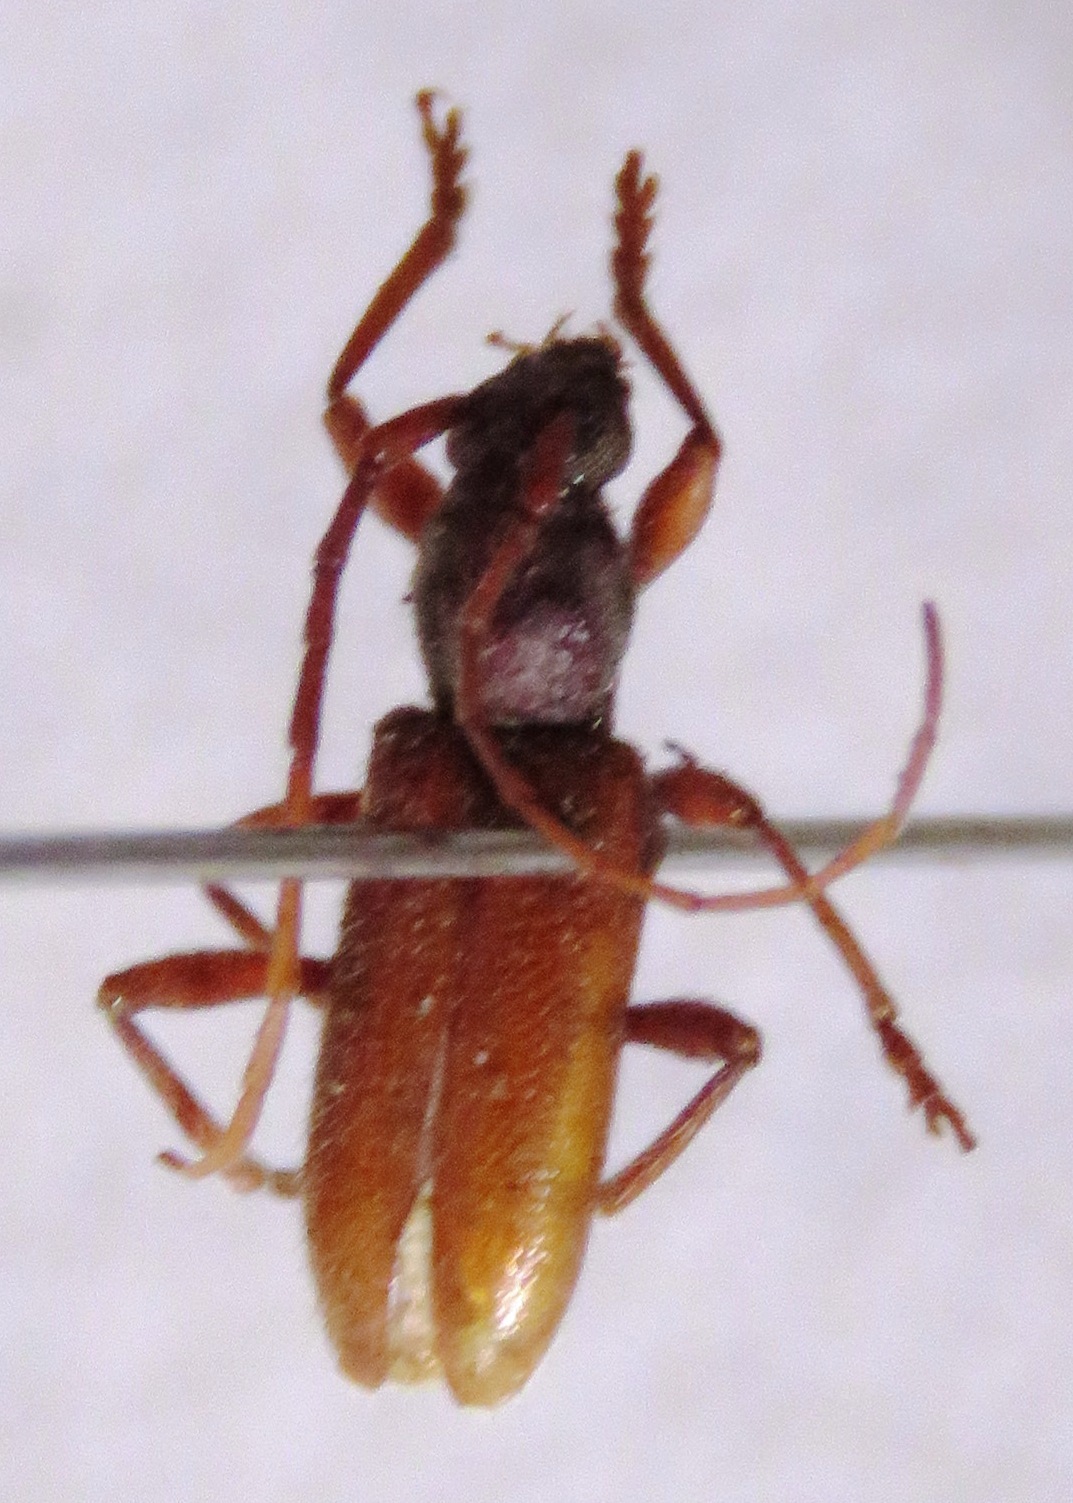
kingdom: Animalia
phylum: Arthropoda
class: Insecta
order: Coleoptera
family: Cerambycidae
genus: Anelaphus
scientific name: Anelaphus misellus
